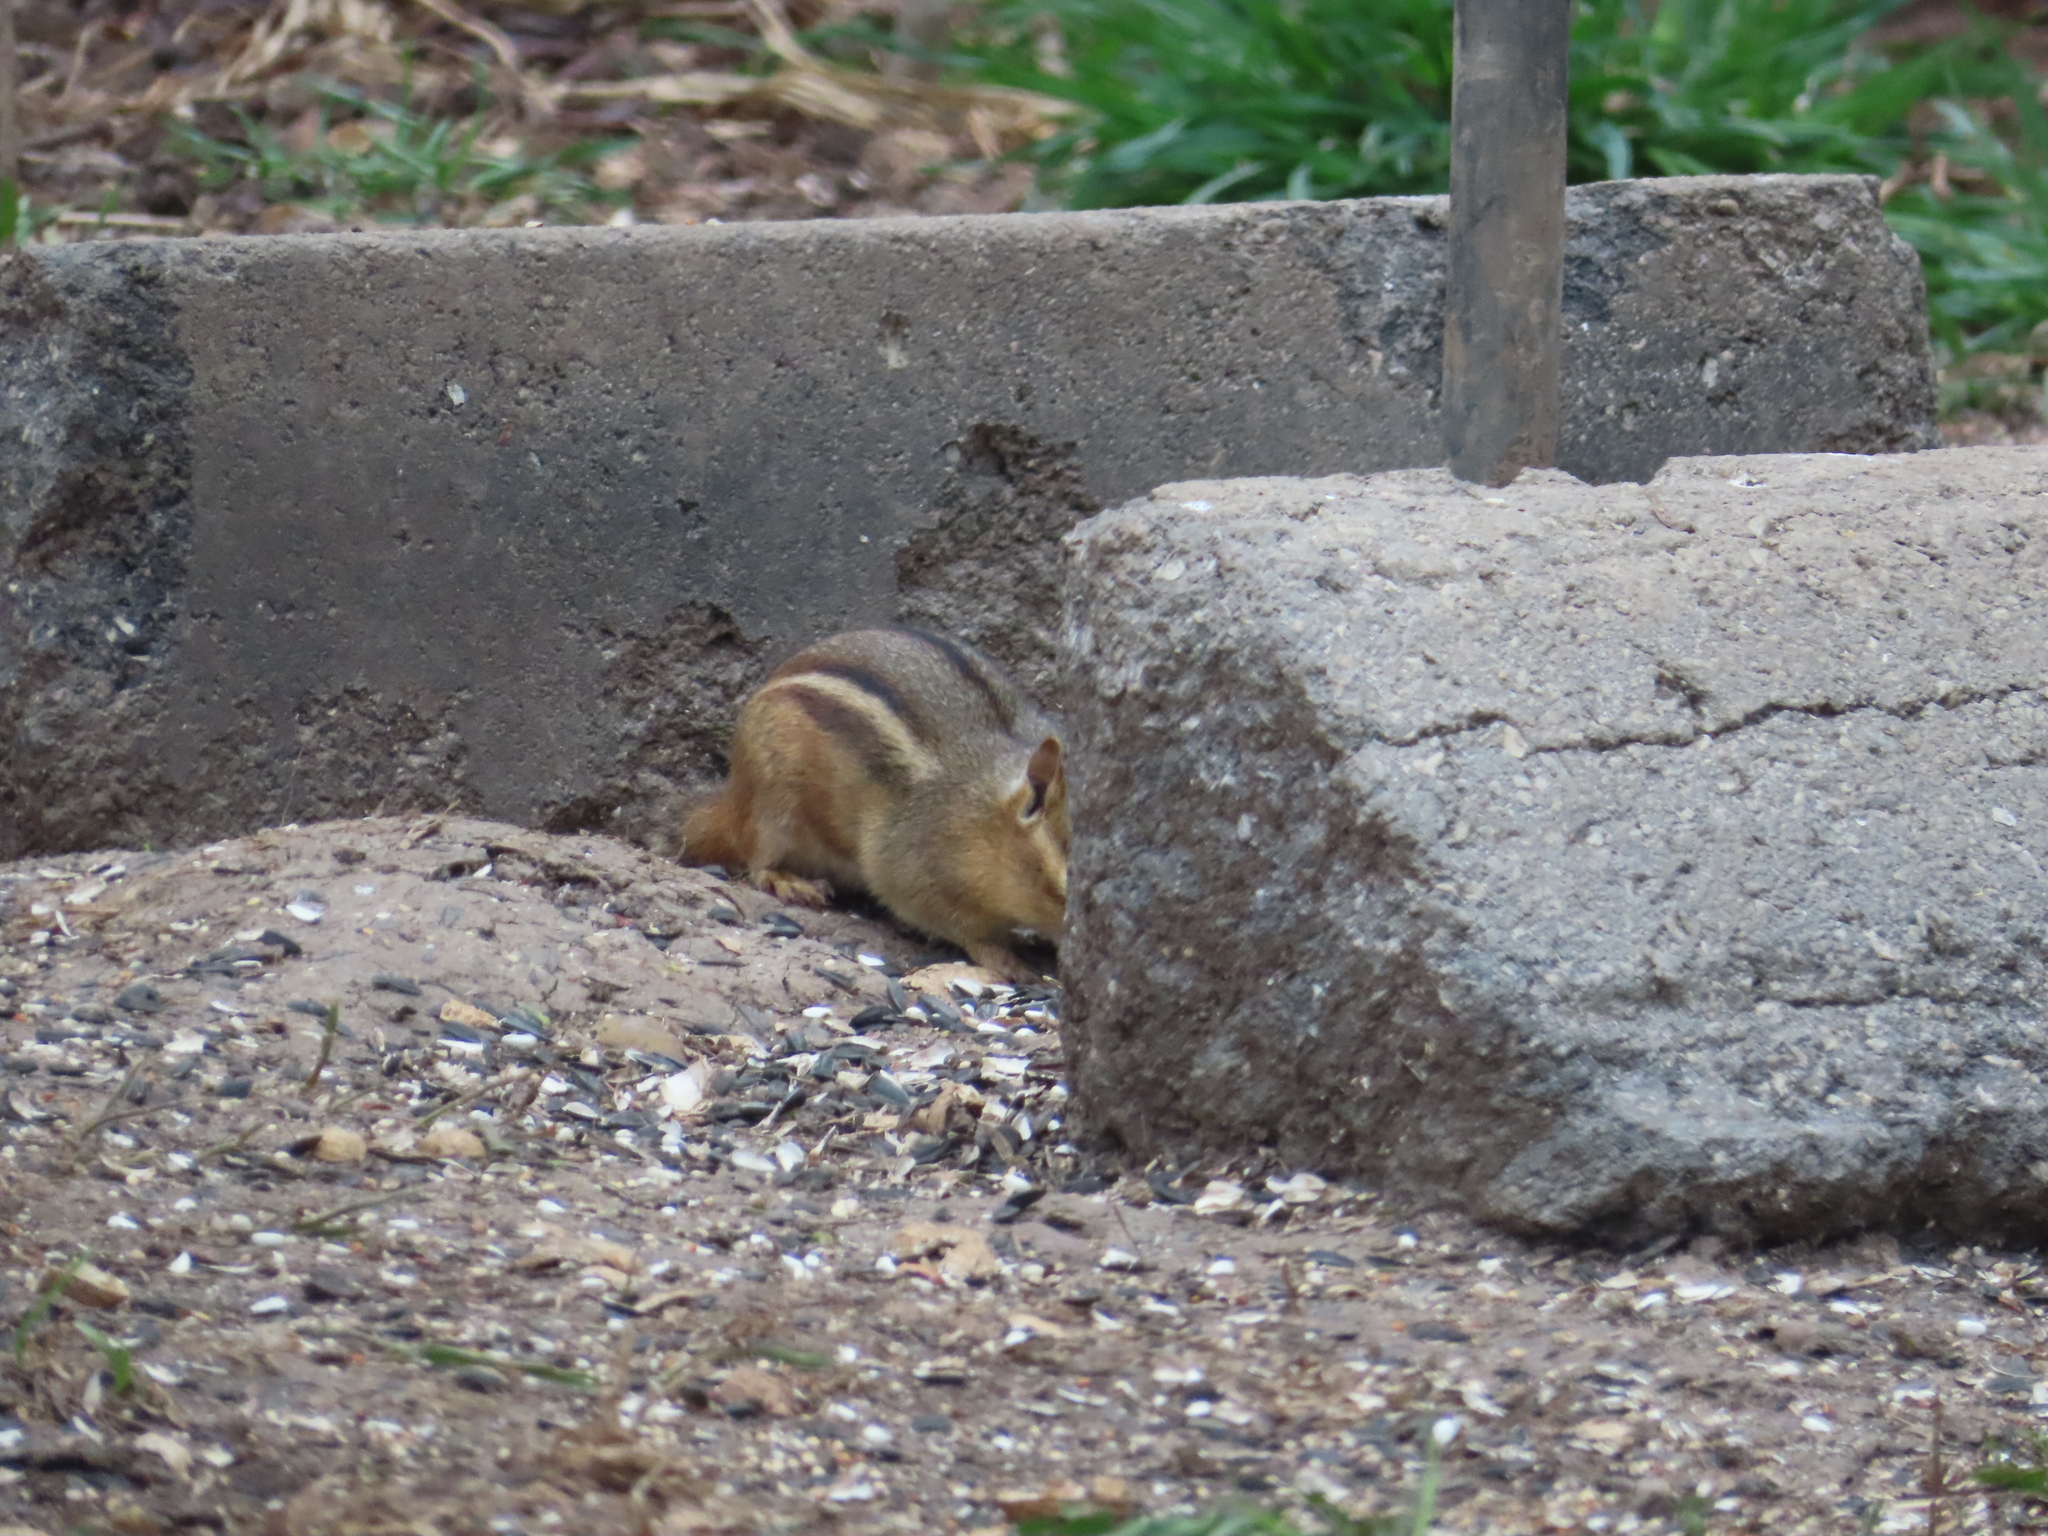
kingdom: Animalia
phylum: Chordata
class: Mammalia
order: Rodentia
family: Sciuridae
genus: Tamias
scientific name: Tamias striatus
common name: Eastern chipmunk
